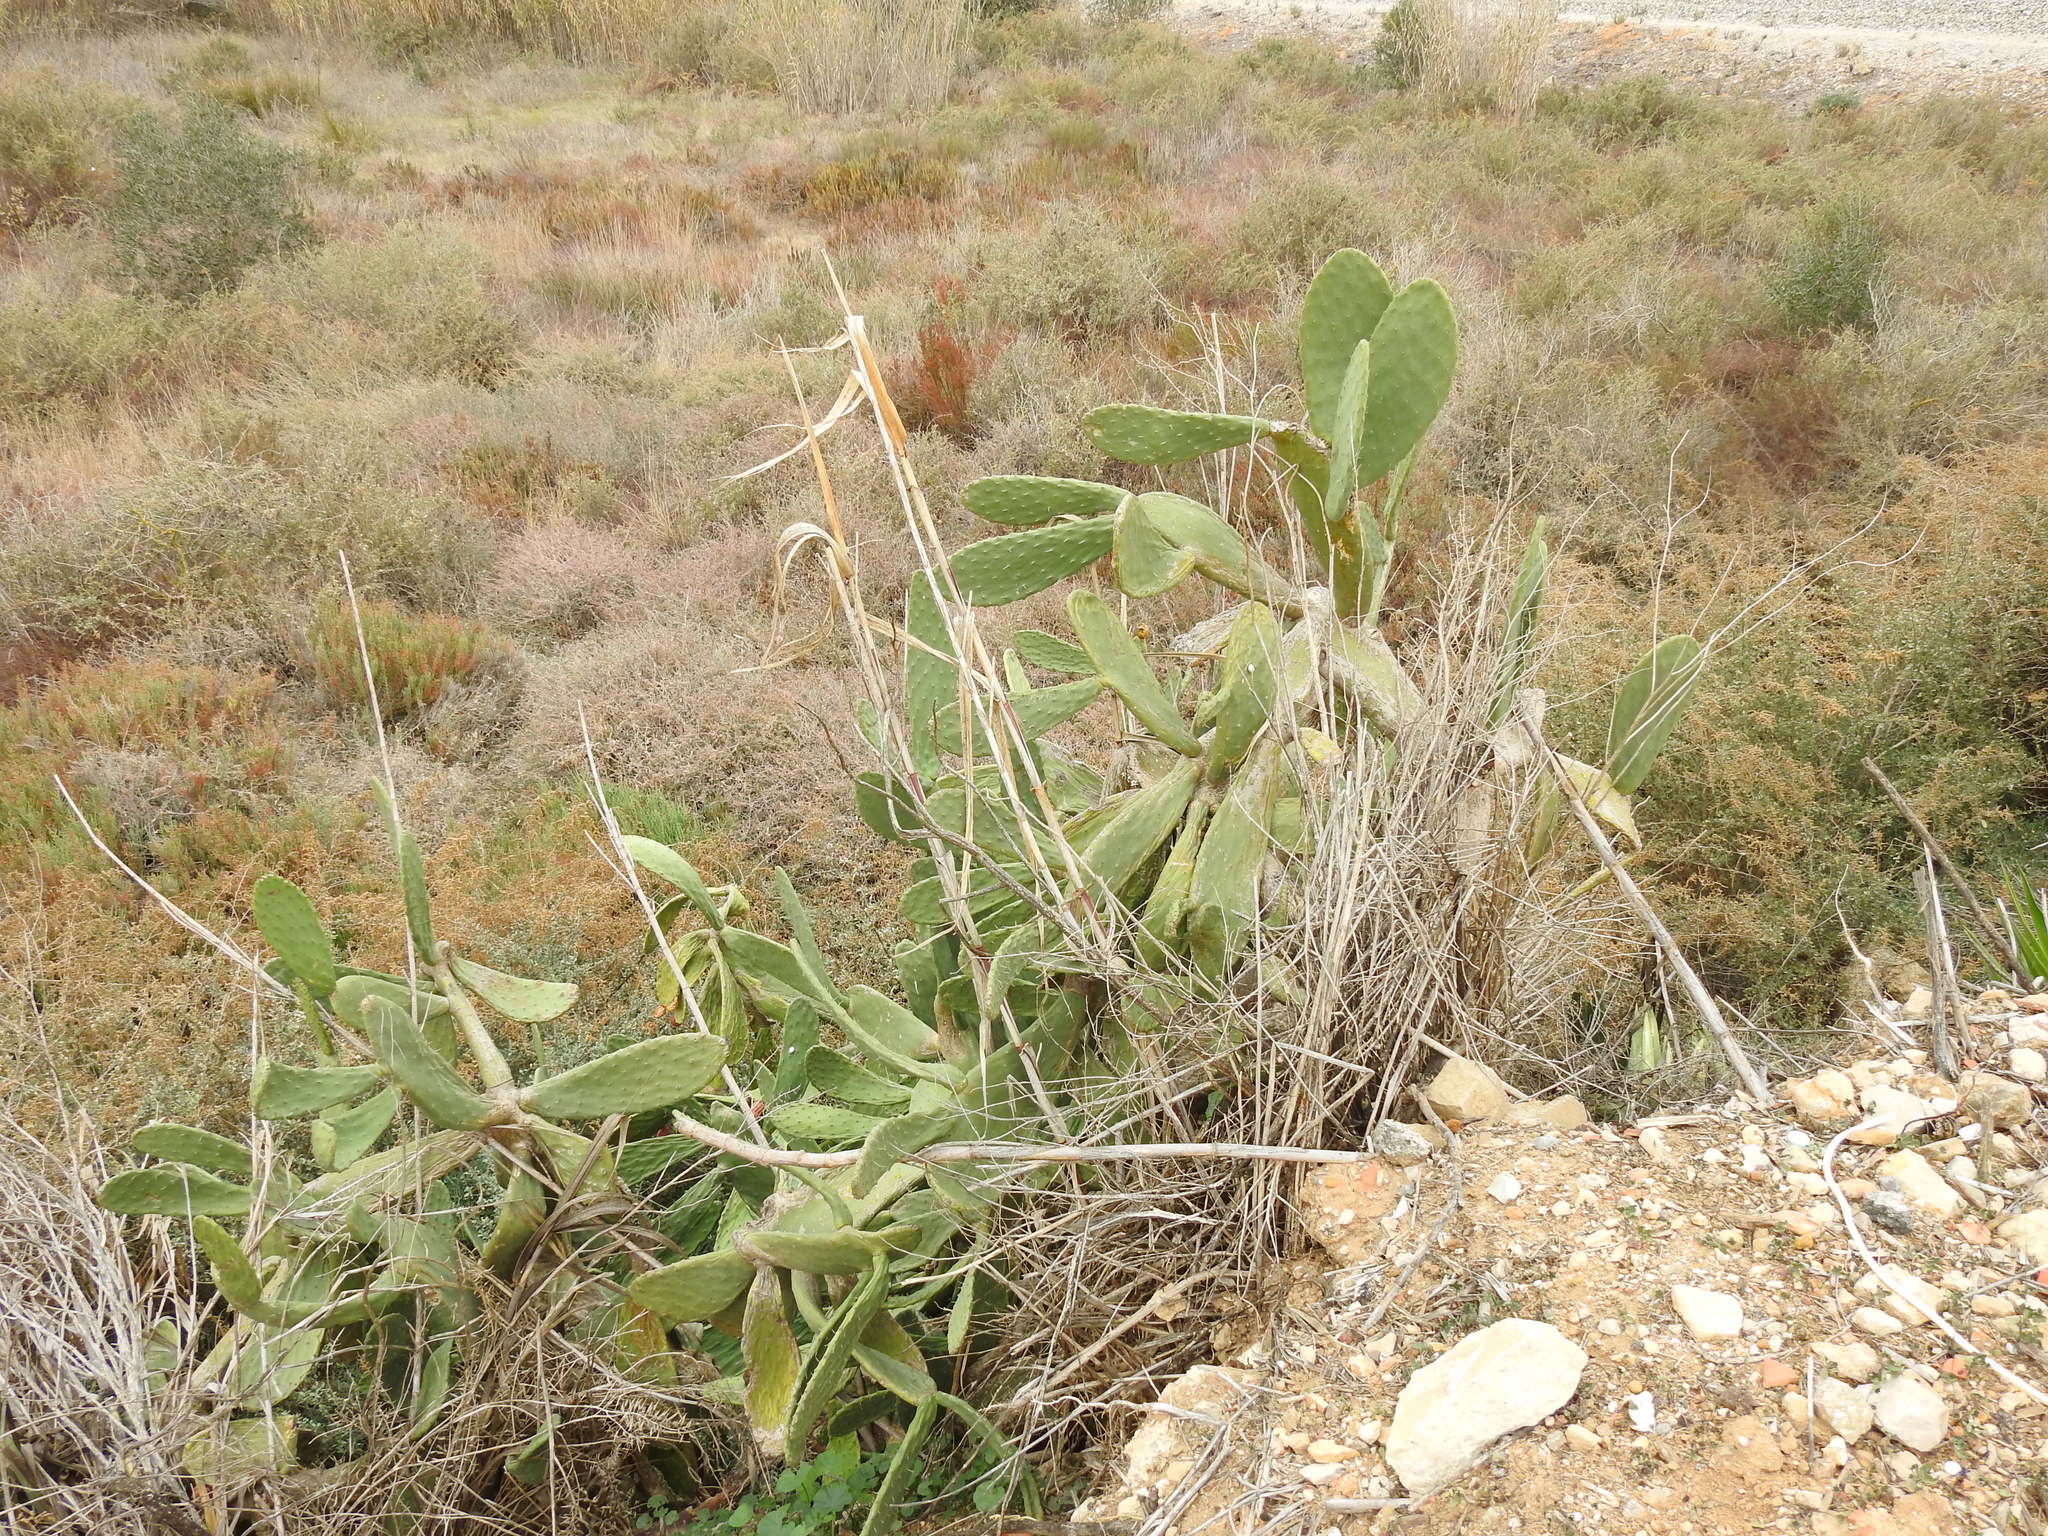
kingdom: Plantae
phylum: Tracheophyta
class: Magnoliopsida
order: Caryophyllales
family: Cactaceae
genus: Opuntia
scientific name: Opuntia ficus-indica
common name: Barbary fig
